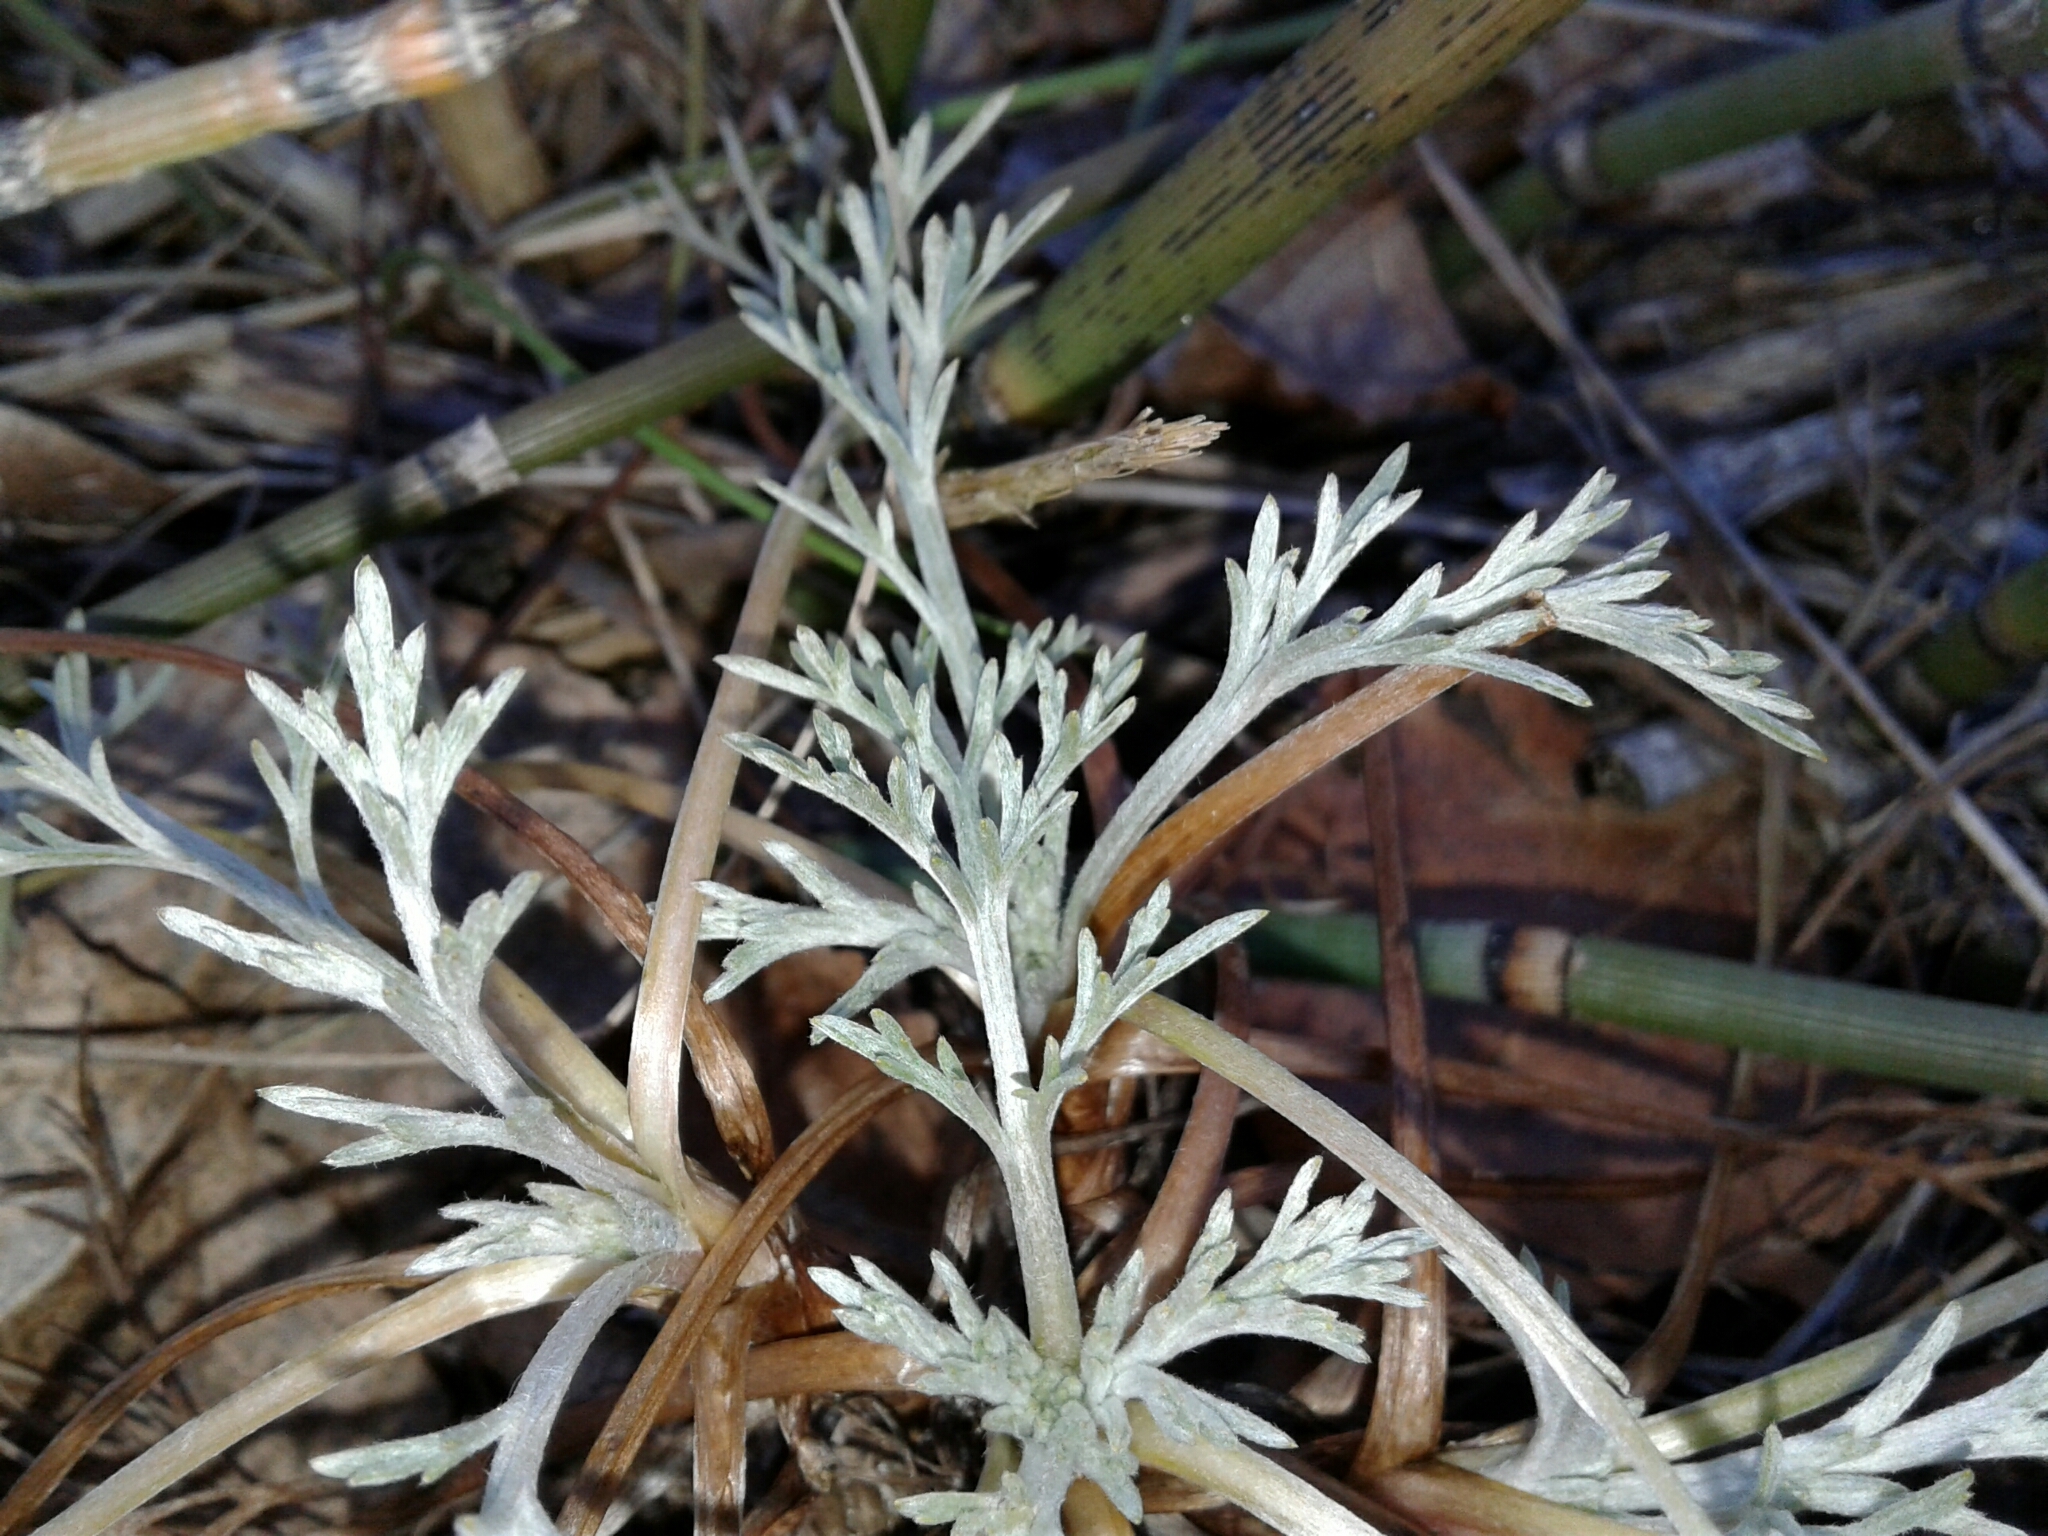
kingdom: Plantae
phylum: Tracheophyta
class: Magnoliopsida
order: Asterales
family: Asteraceae
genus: Artemisia
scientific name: Artemisia campestris
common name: Field wormwood
